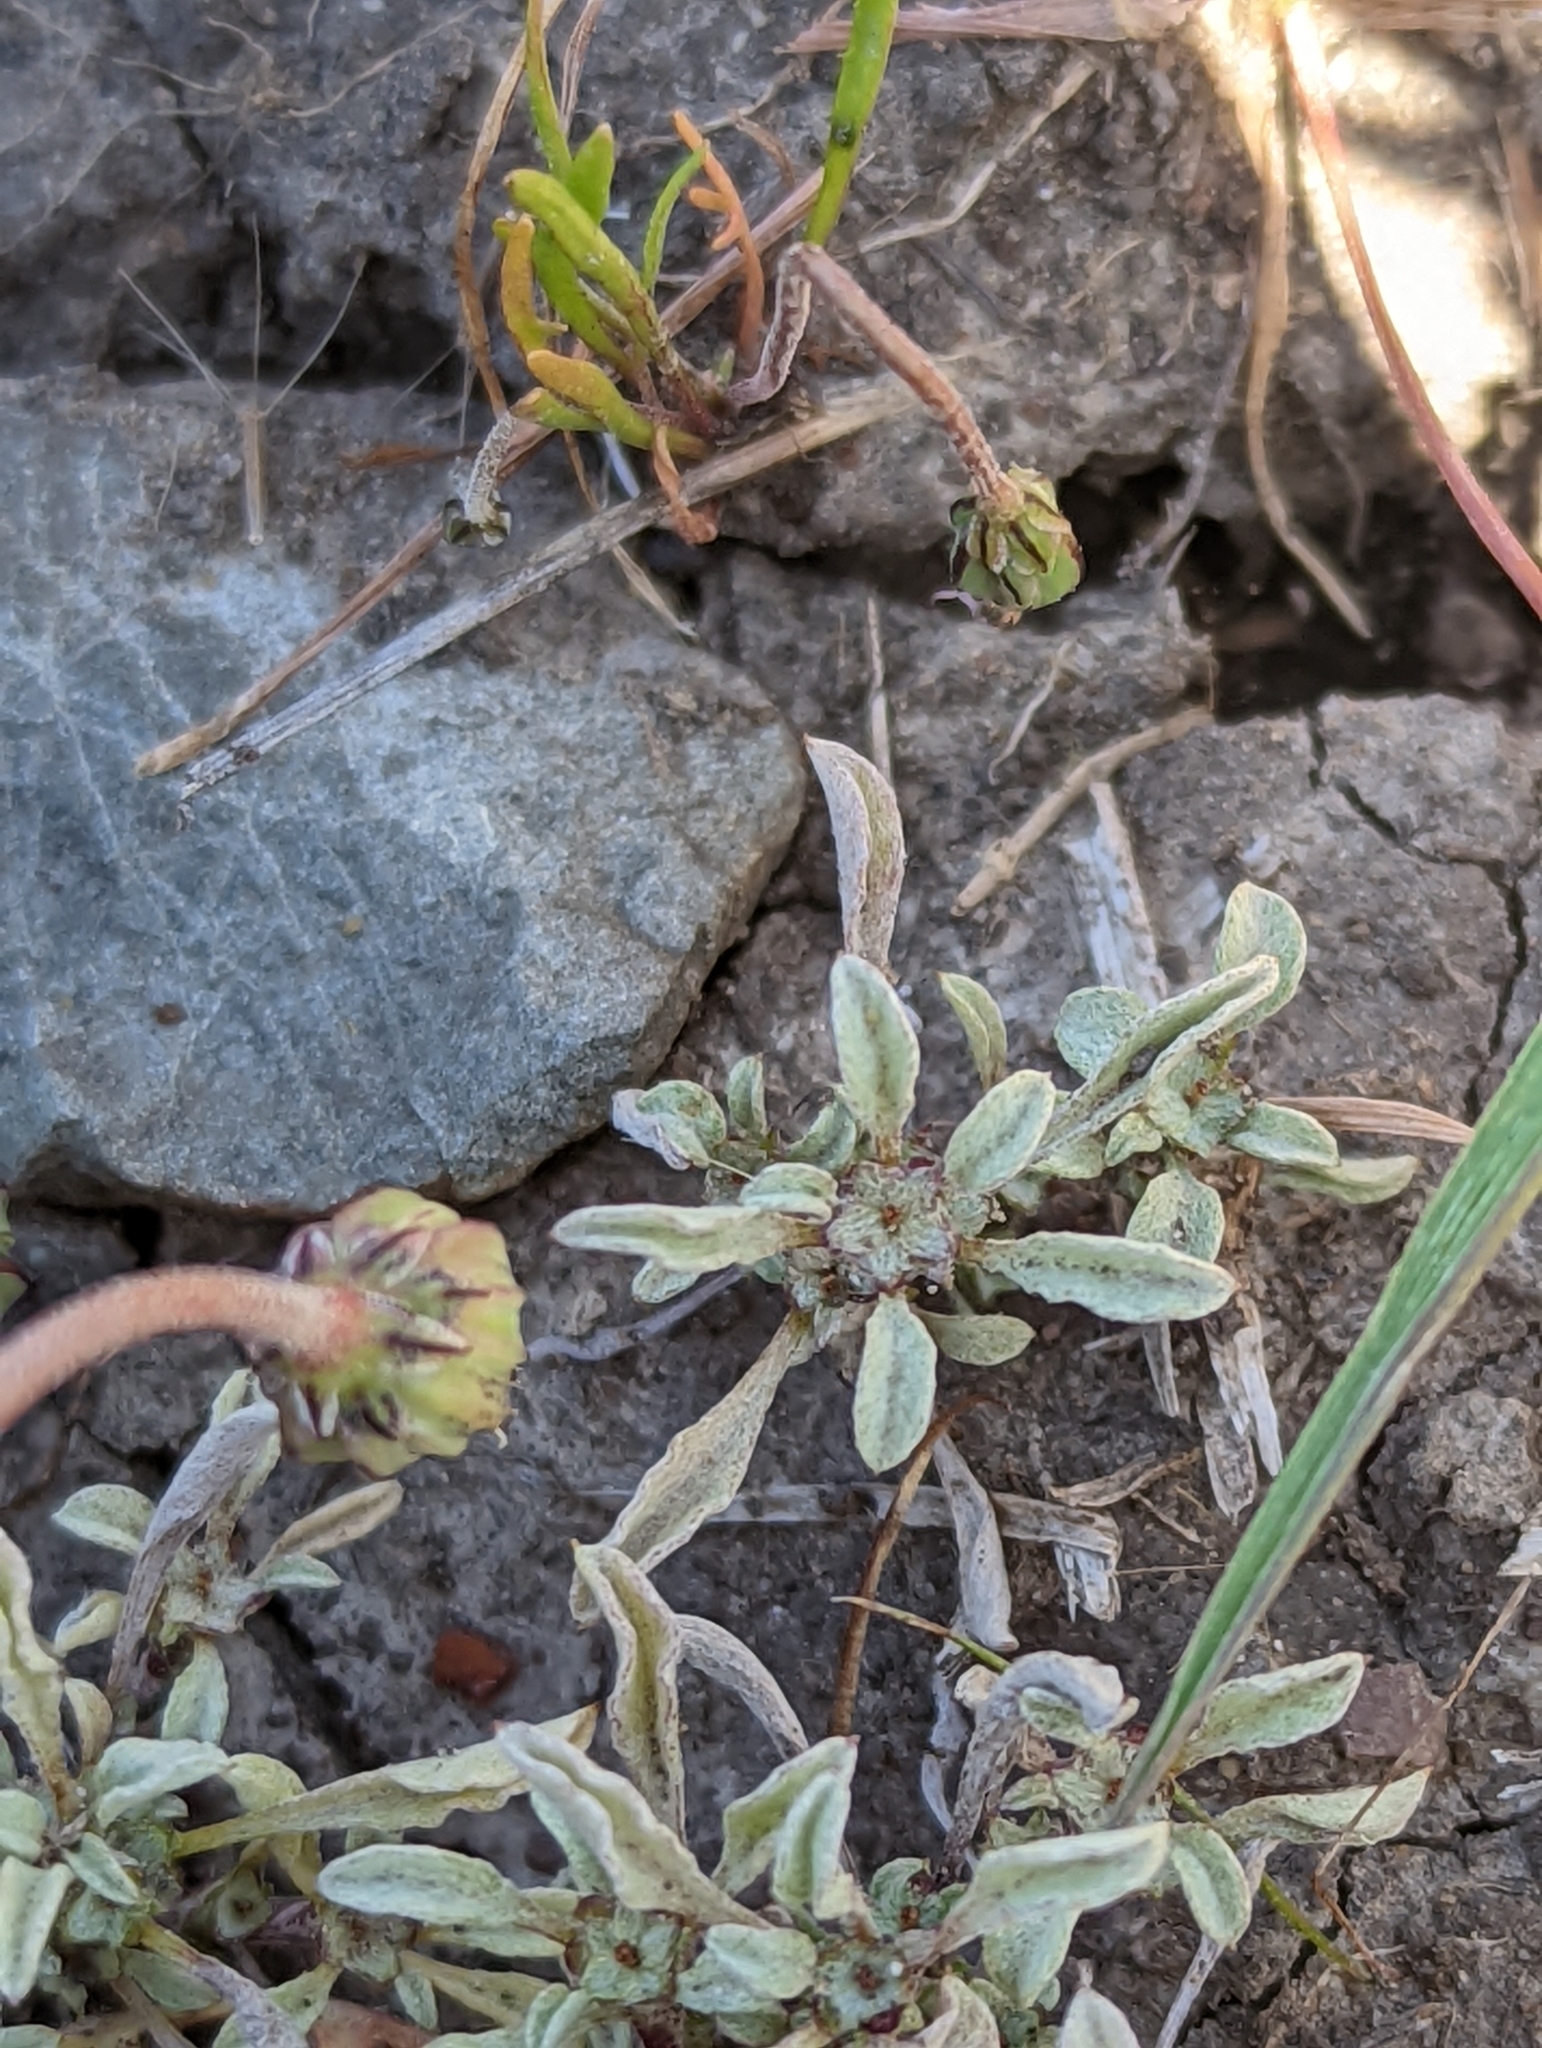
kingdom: Plantae
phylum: Tracheophyta
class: Magnoliopsida
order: Asterales
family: Asteraceae
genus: Hesperevax
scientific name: Hesperevax sparsiflora
